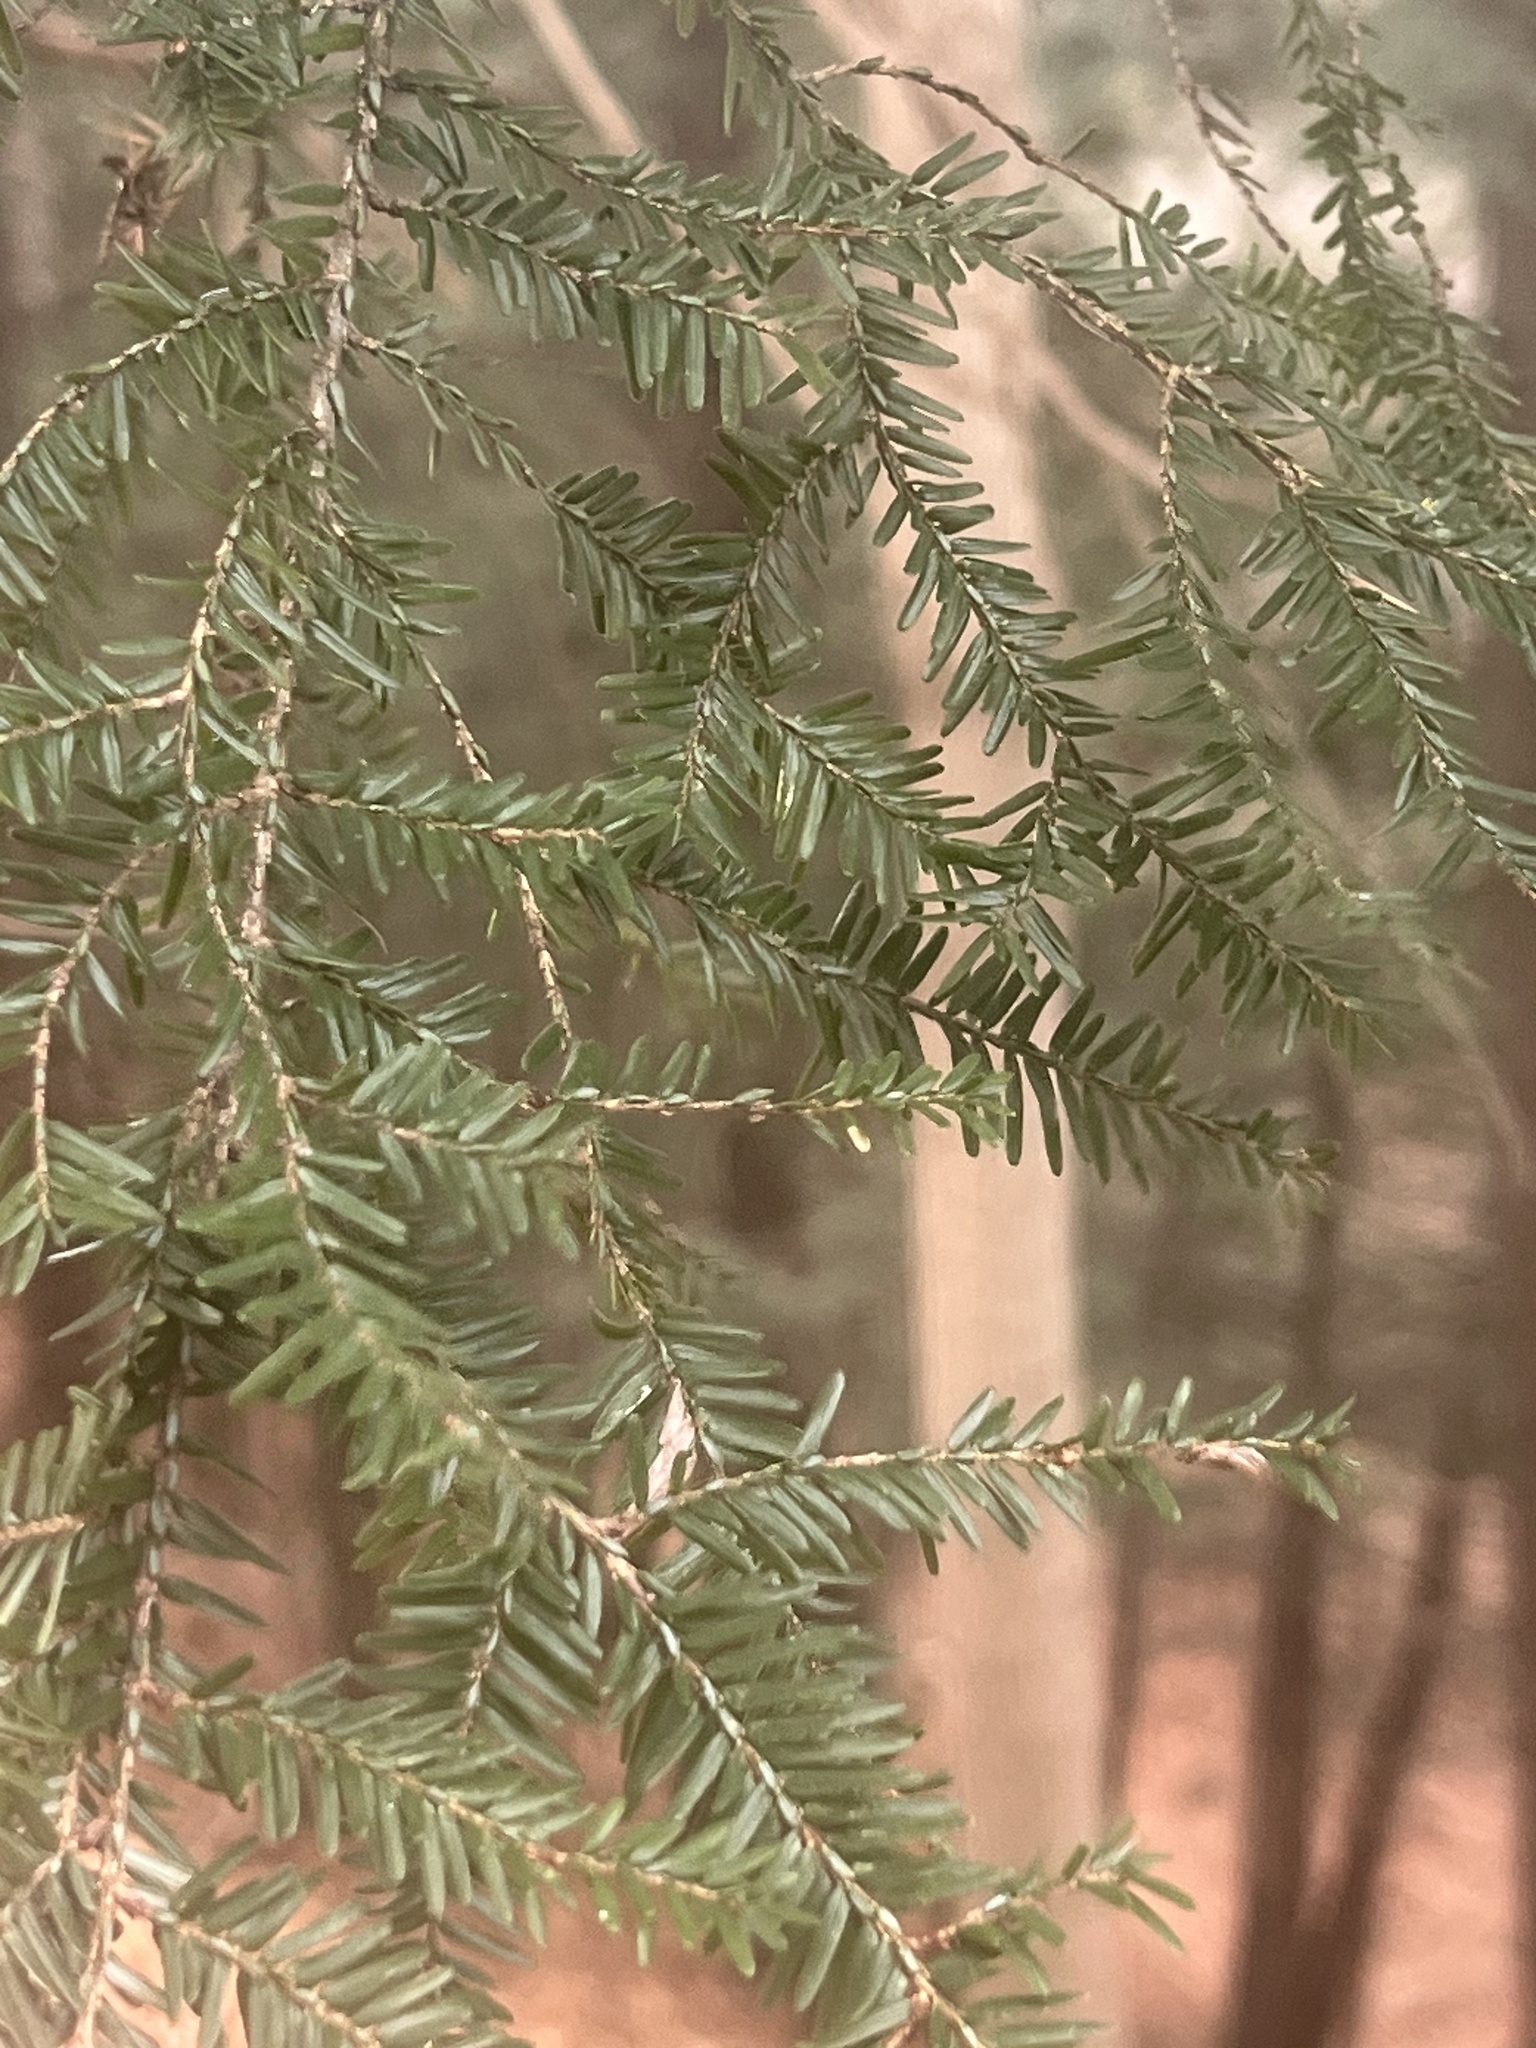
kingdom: Plantae
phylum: Tracheophyta
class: Pinopsida
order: Pinales
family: Pinaceae
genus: Tsuga
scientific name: Tsuga canadensis
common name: Eastern hemlock
